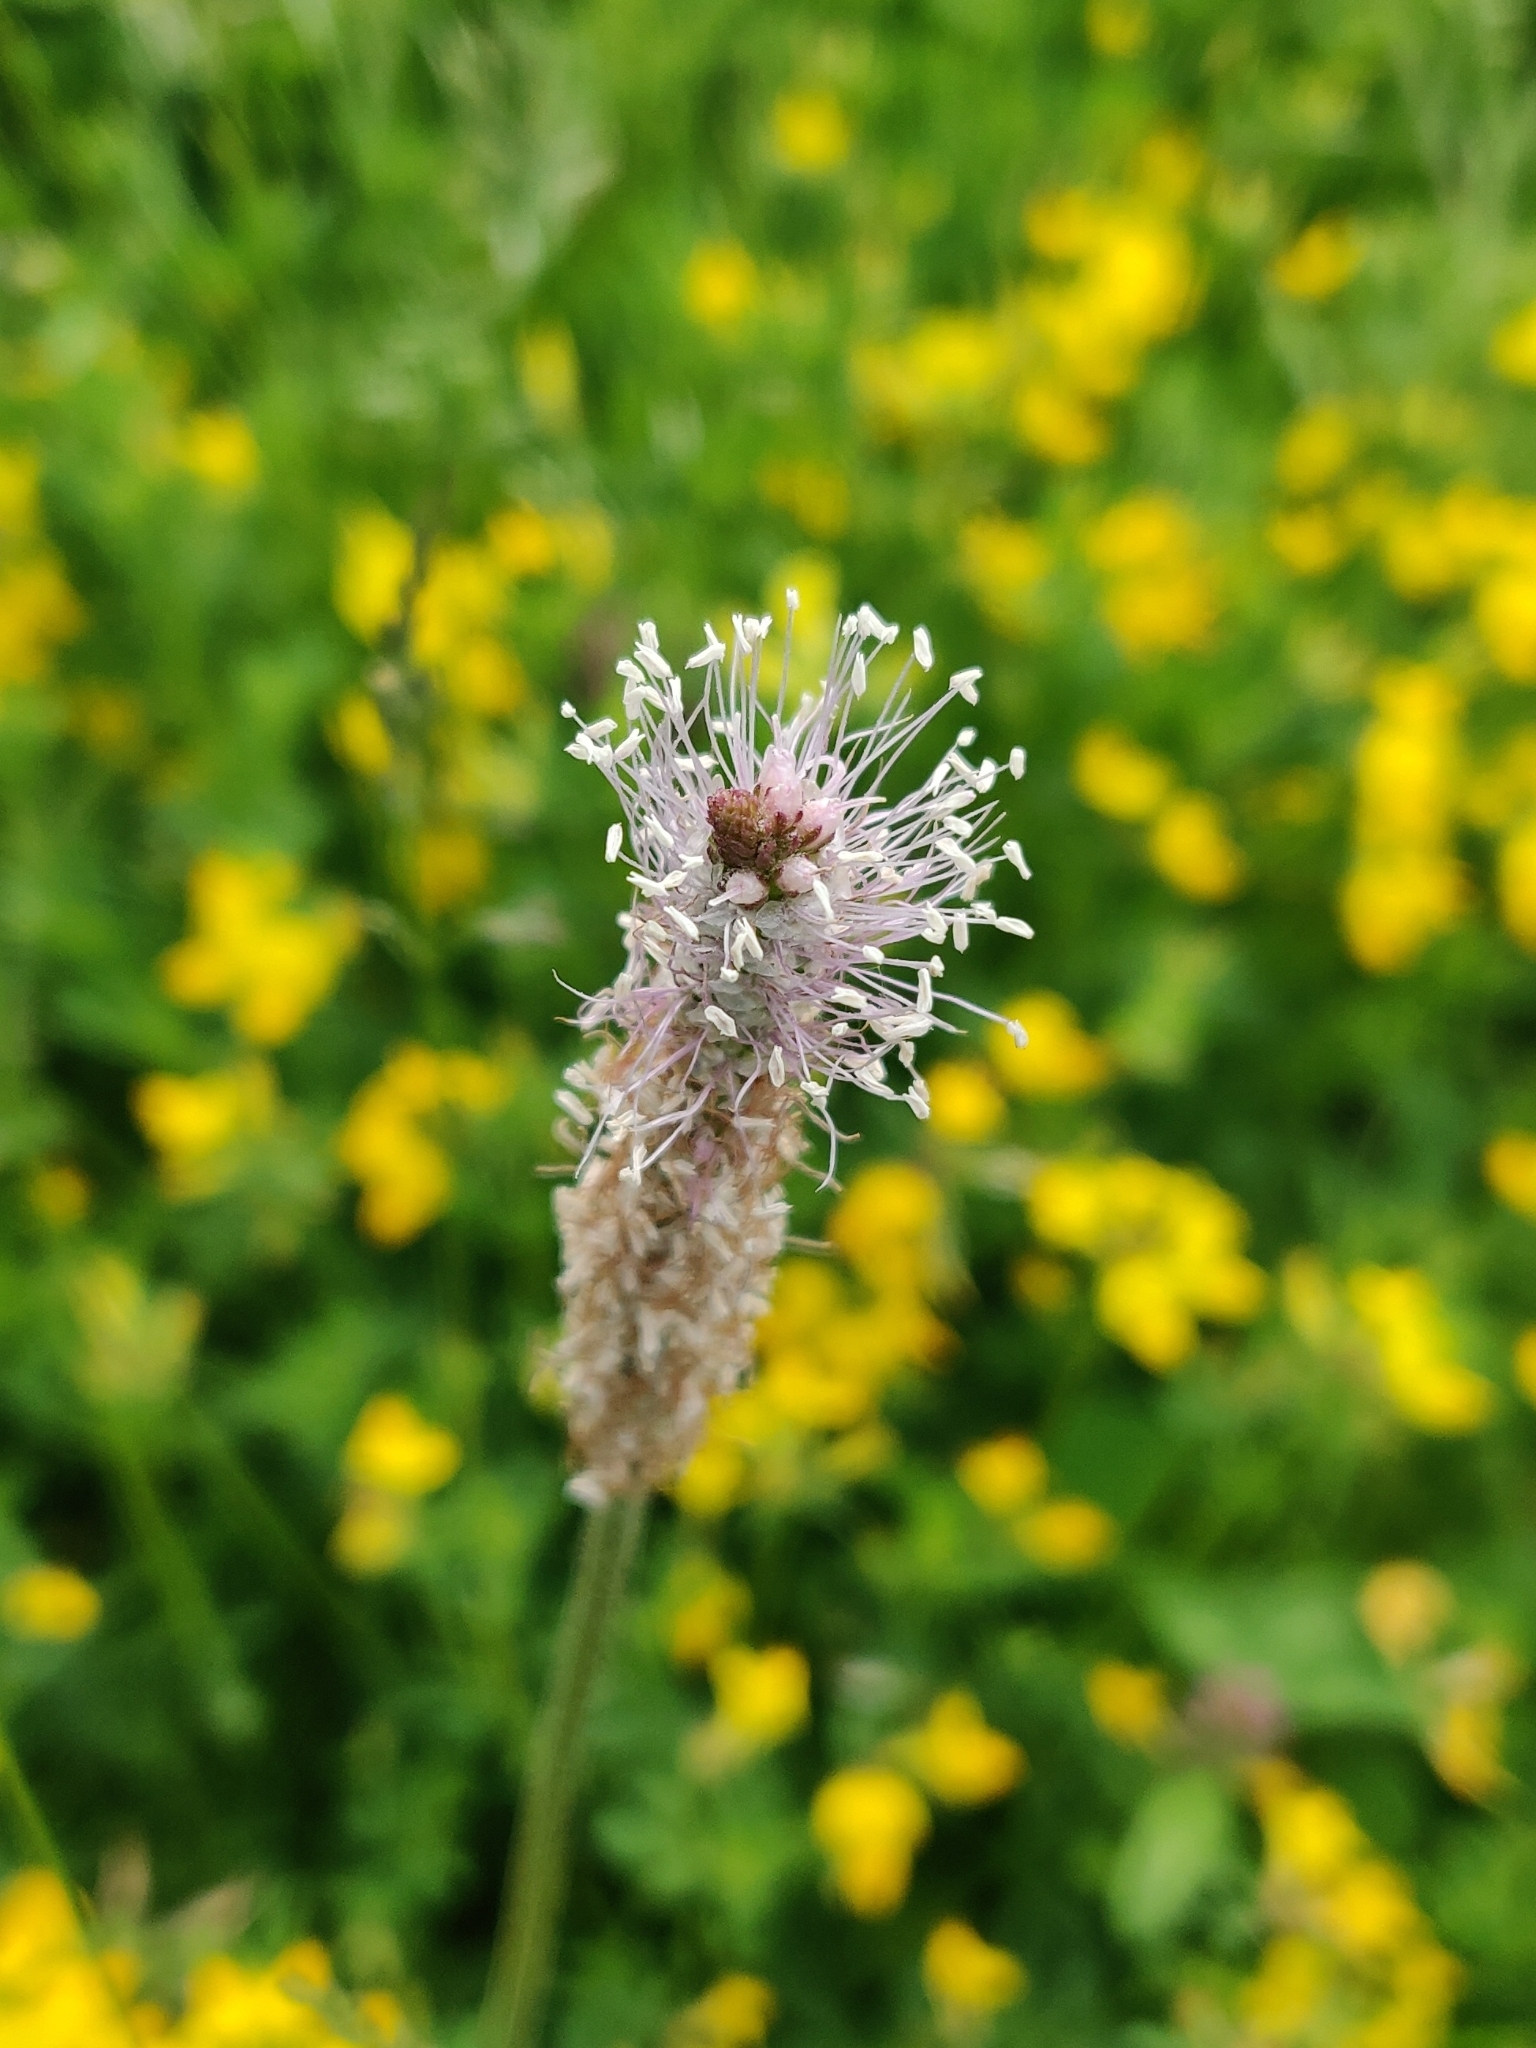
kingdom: Plantae
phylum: Tracheophyta
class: Magnoliopsida
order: Lamiales
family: Plantaginaceae
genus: Plantago
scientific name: Plantago media
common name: Hoary plantain
